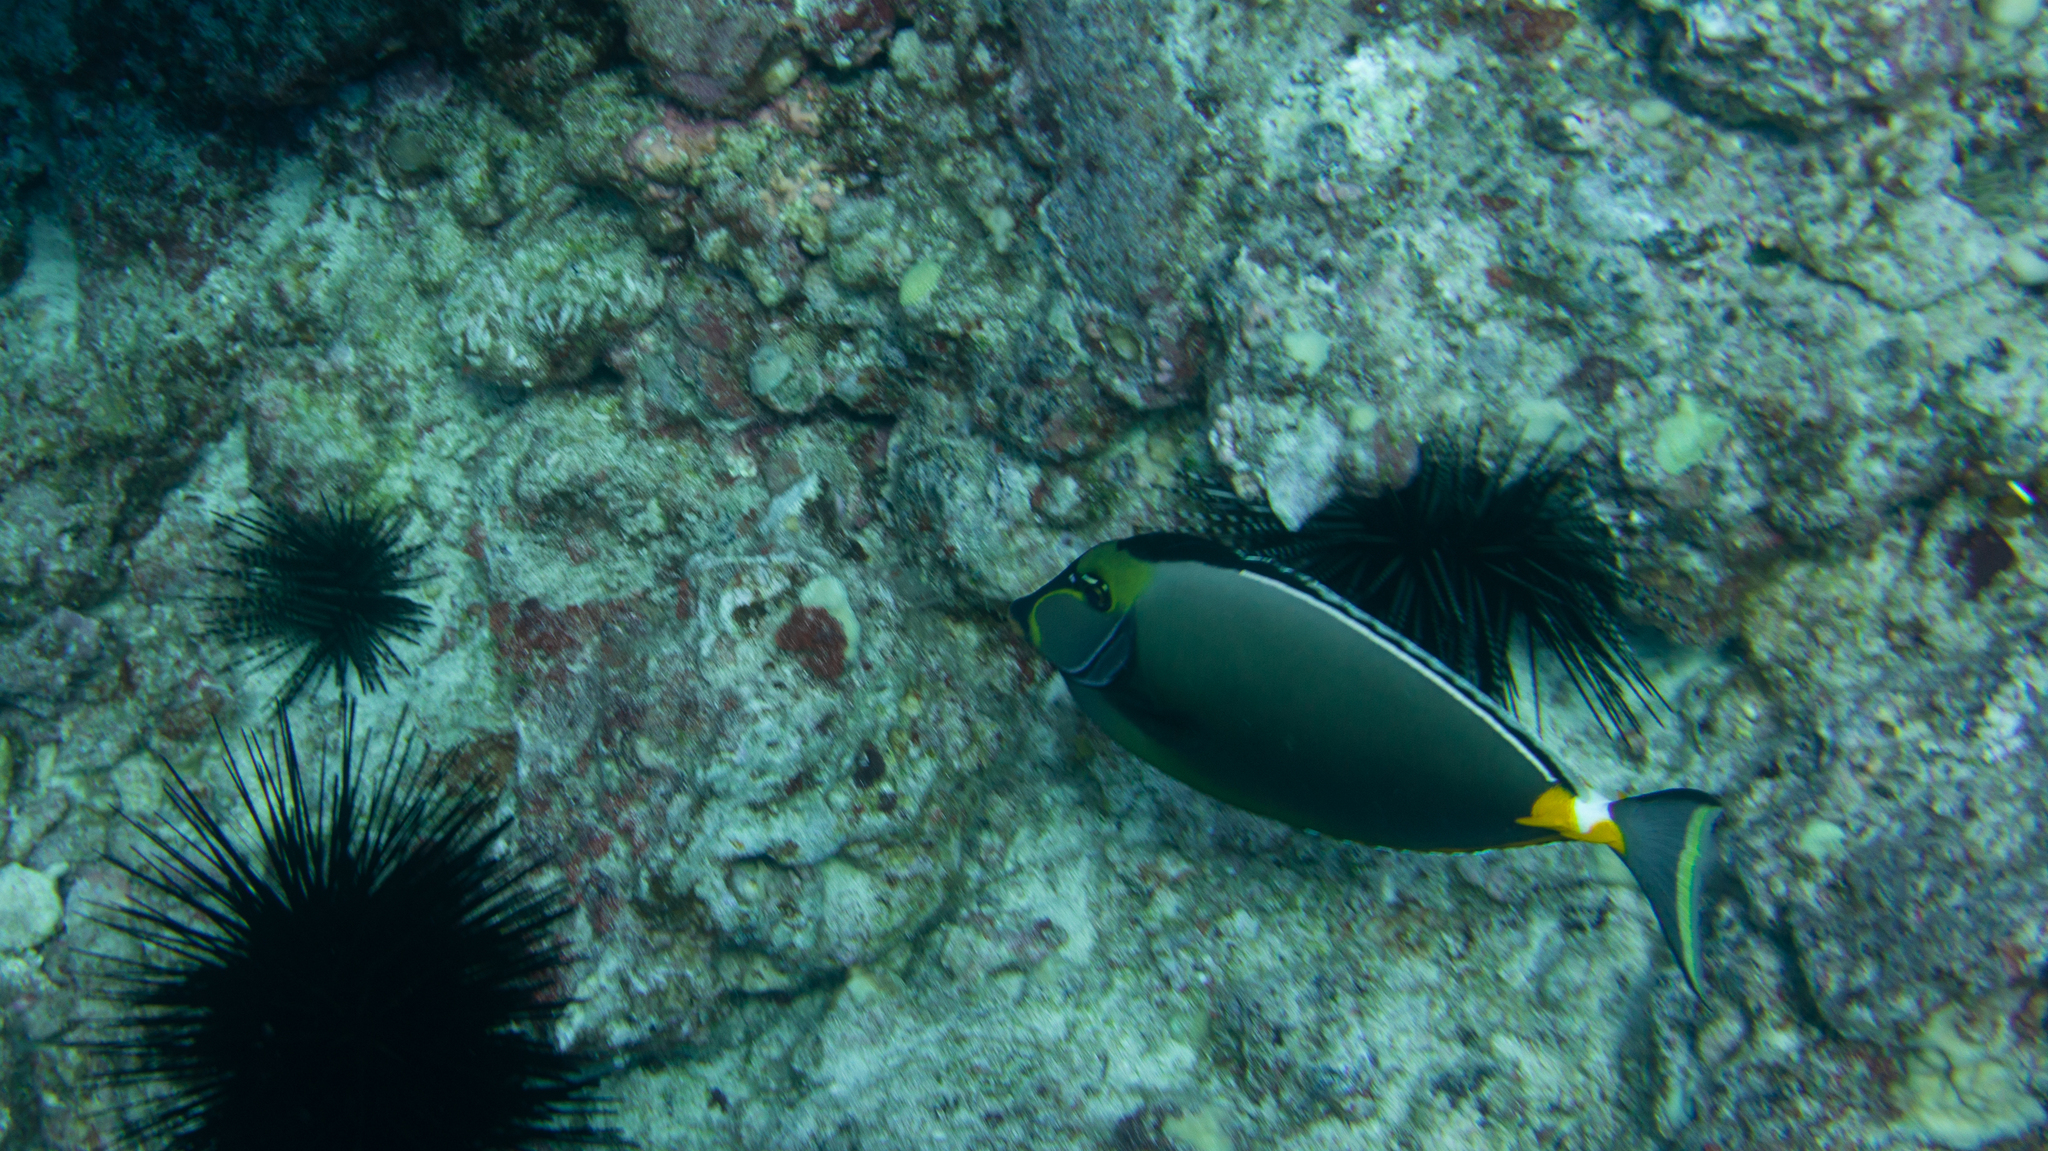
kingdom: Animalia
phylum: Chordata
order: Perciformes
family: Acanthuridae
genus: Naso
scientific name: Naso lituratus
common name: Orangespine unicornfish
